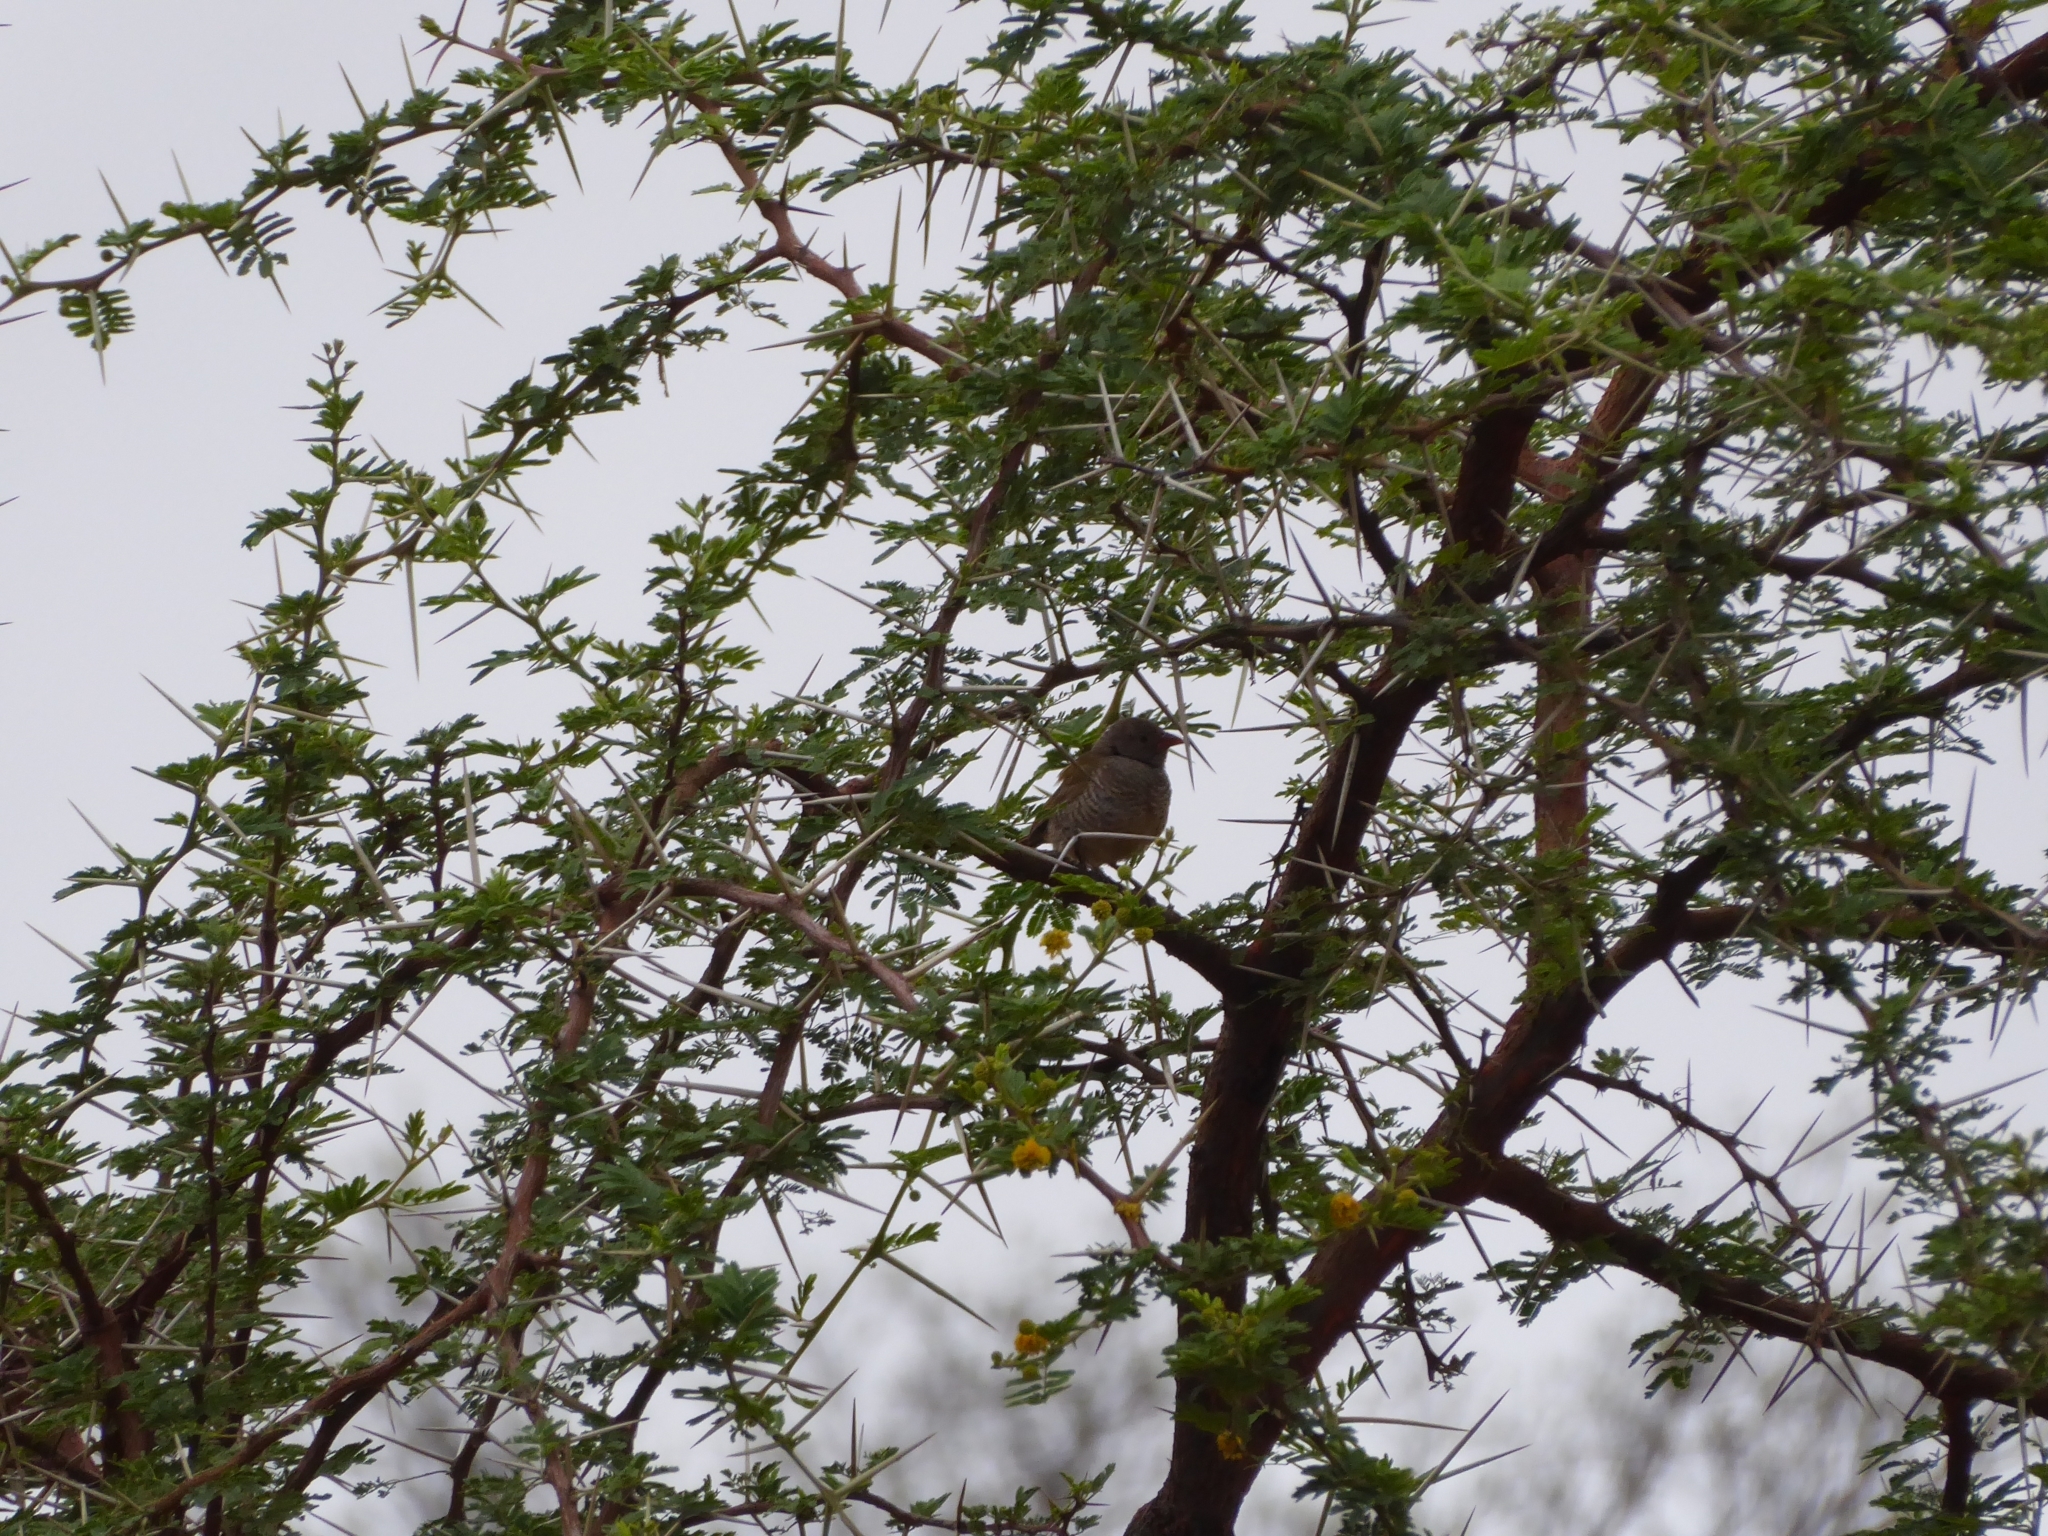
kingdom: Animalia
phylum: Chordata
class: Aves
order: Passeriformes
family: Estrildidae
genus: Pytilia
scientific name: Pytilia melba
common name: Green-winged pytilia
